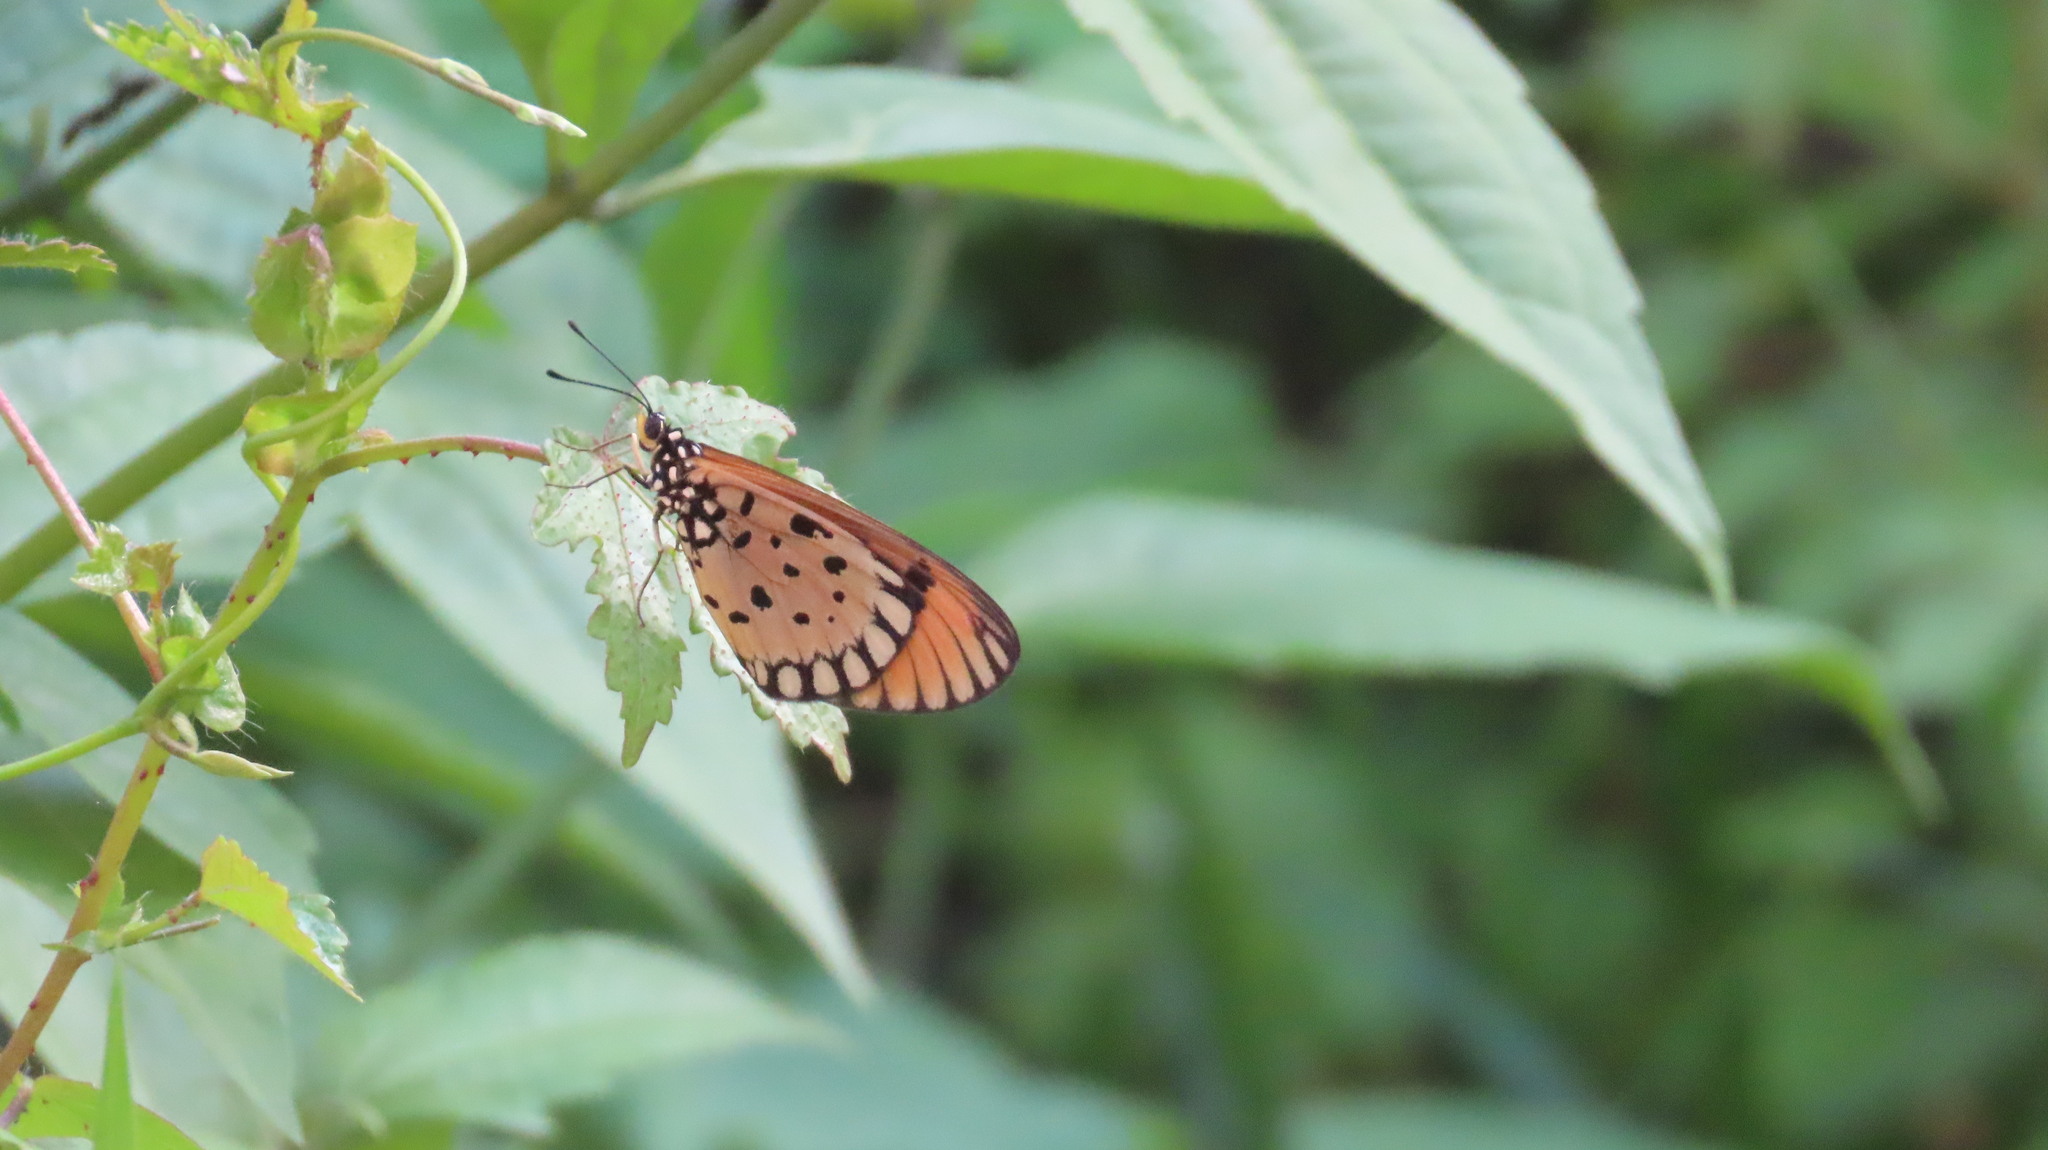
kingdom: Animalia
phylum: Arthropoda
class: Insecta
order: Lepidoptera
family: Nymphalidae
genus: Acraea
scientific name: Acraea terpsicore
